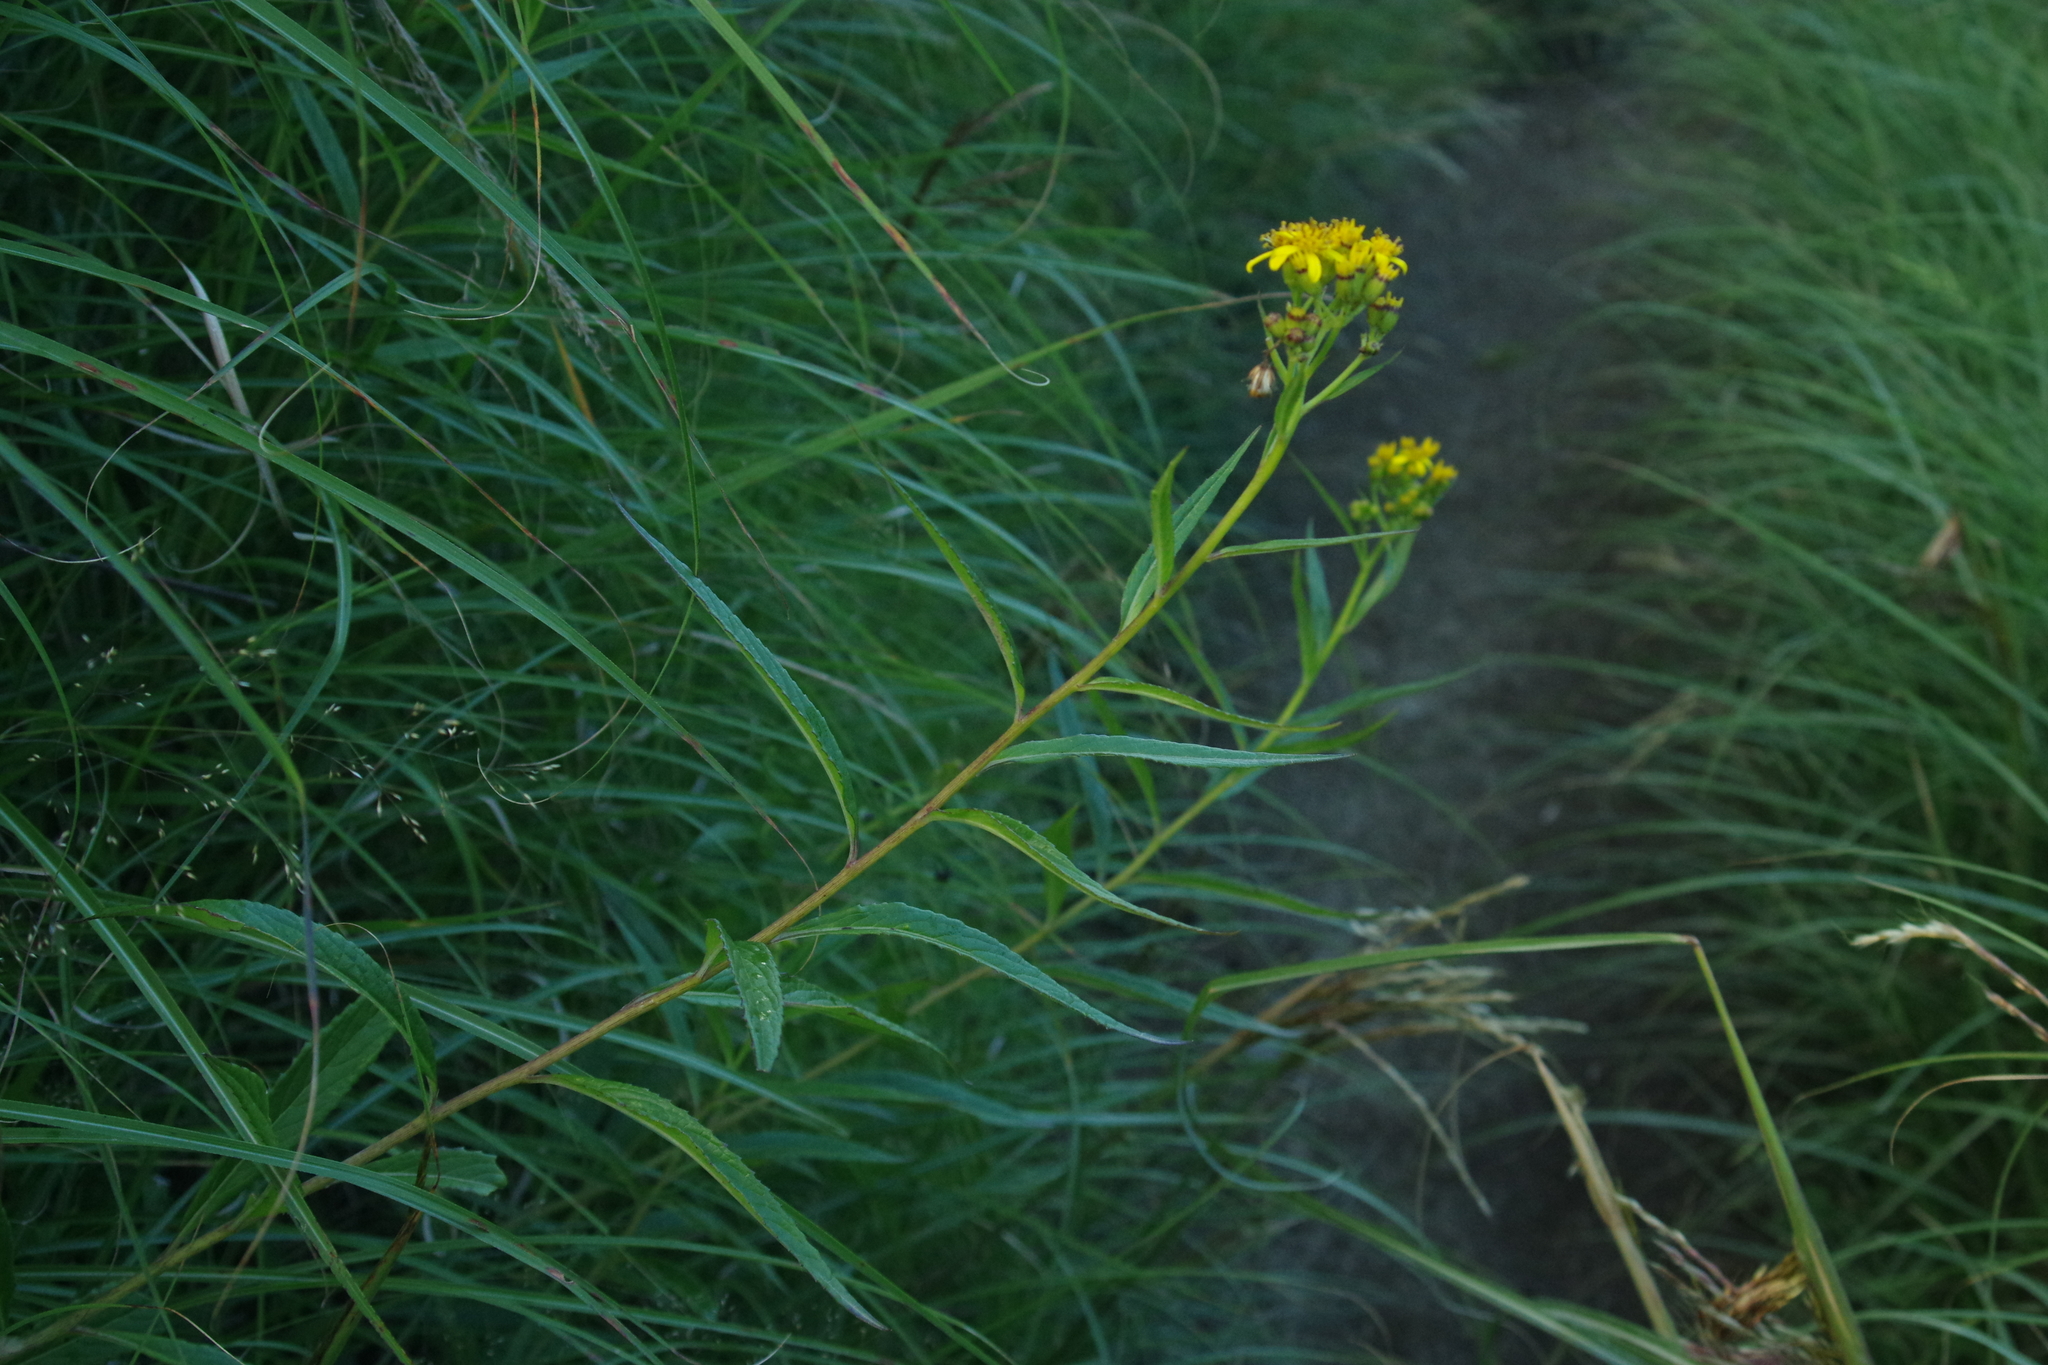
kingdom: Plantae
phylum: Tracheophyta
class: Magnoliopsida
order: Asterales
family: Asteraceae
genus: Jacobaea
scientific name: Jacobaea morrisonensis
